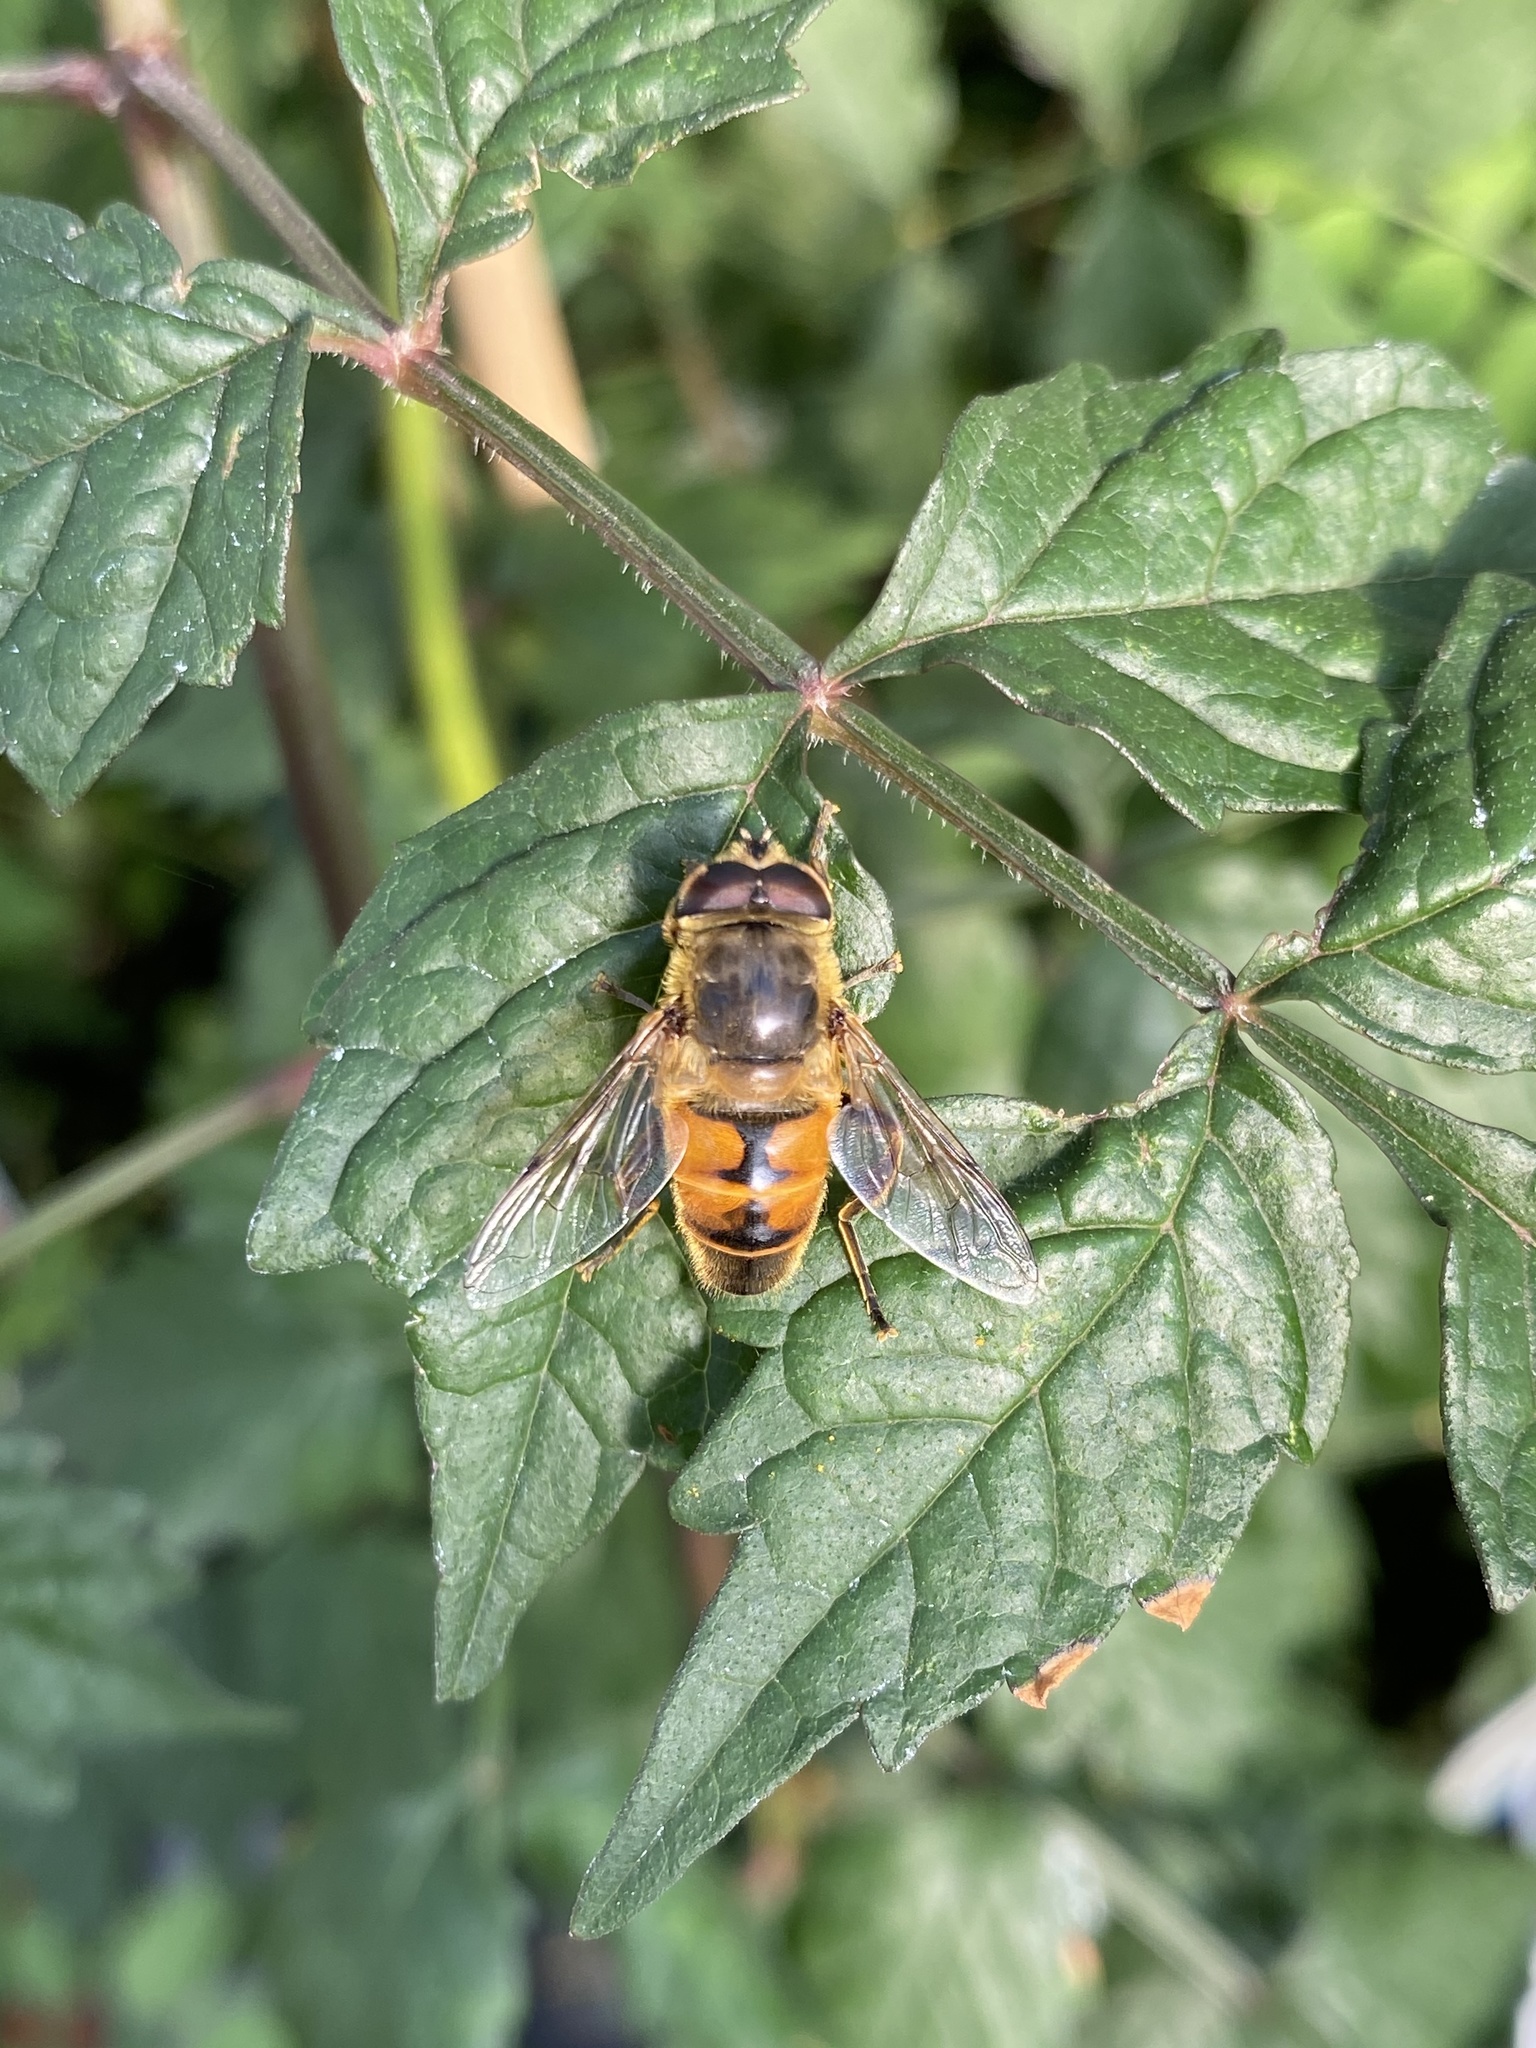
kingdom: Animalia
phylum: Arthropoda
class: Insecta
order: Diptera
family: Syrphidae
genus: Eristalis
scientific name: Eristalis tenax
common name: Drone fly
